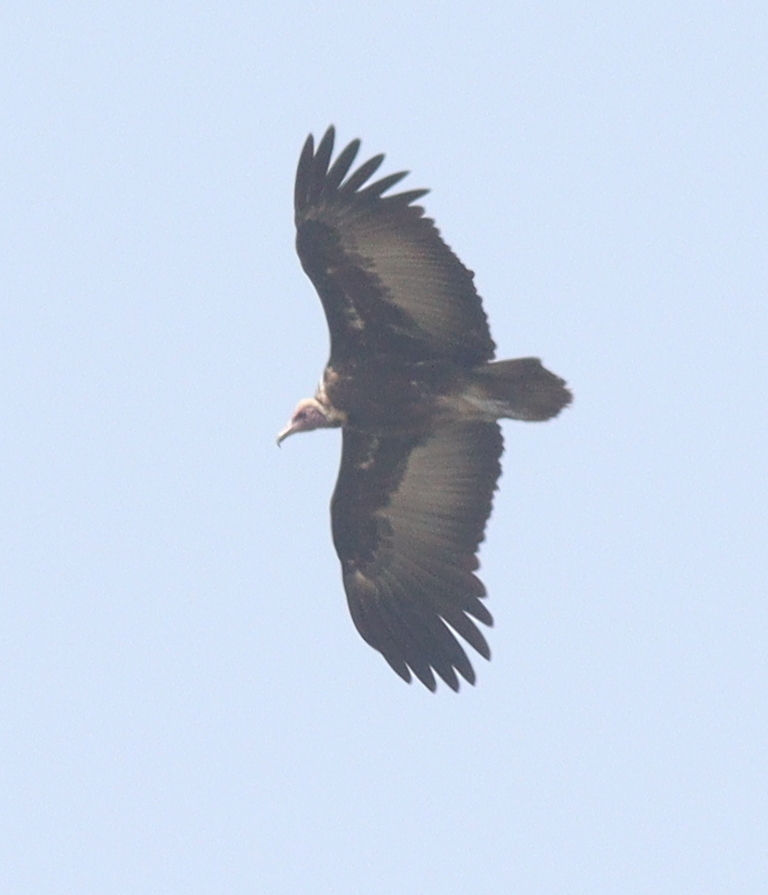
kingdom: Animalia
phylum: Chordata
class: Aves
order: Accipitriformes
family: Accipitridae
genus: Necrosyrtes
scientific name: Necrosyrtes monachus
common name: Hooded vulture
